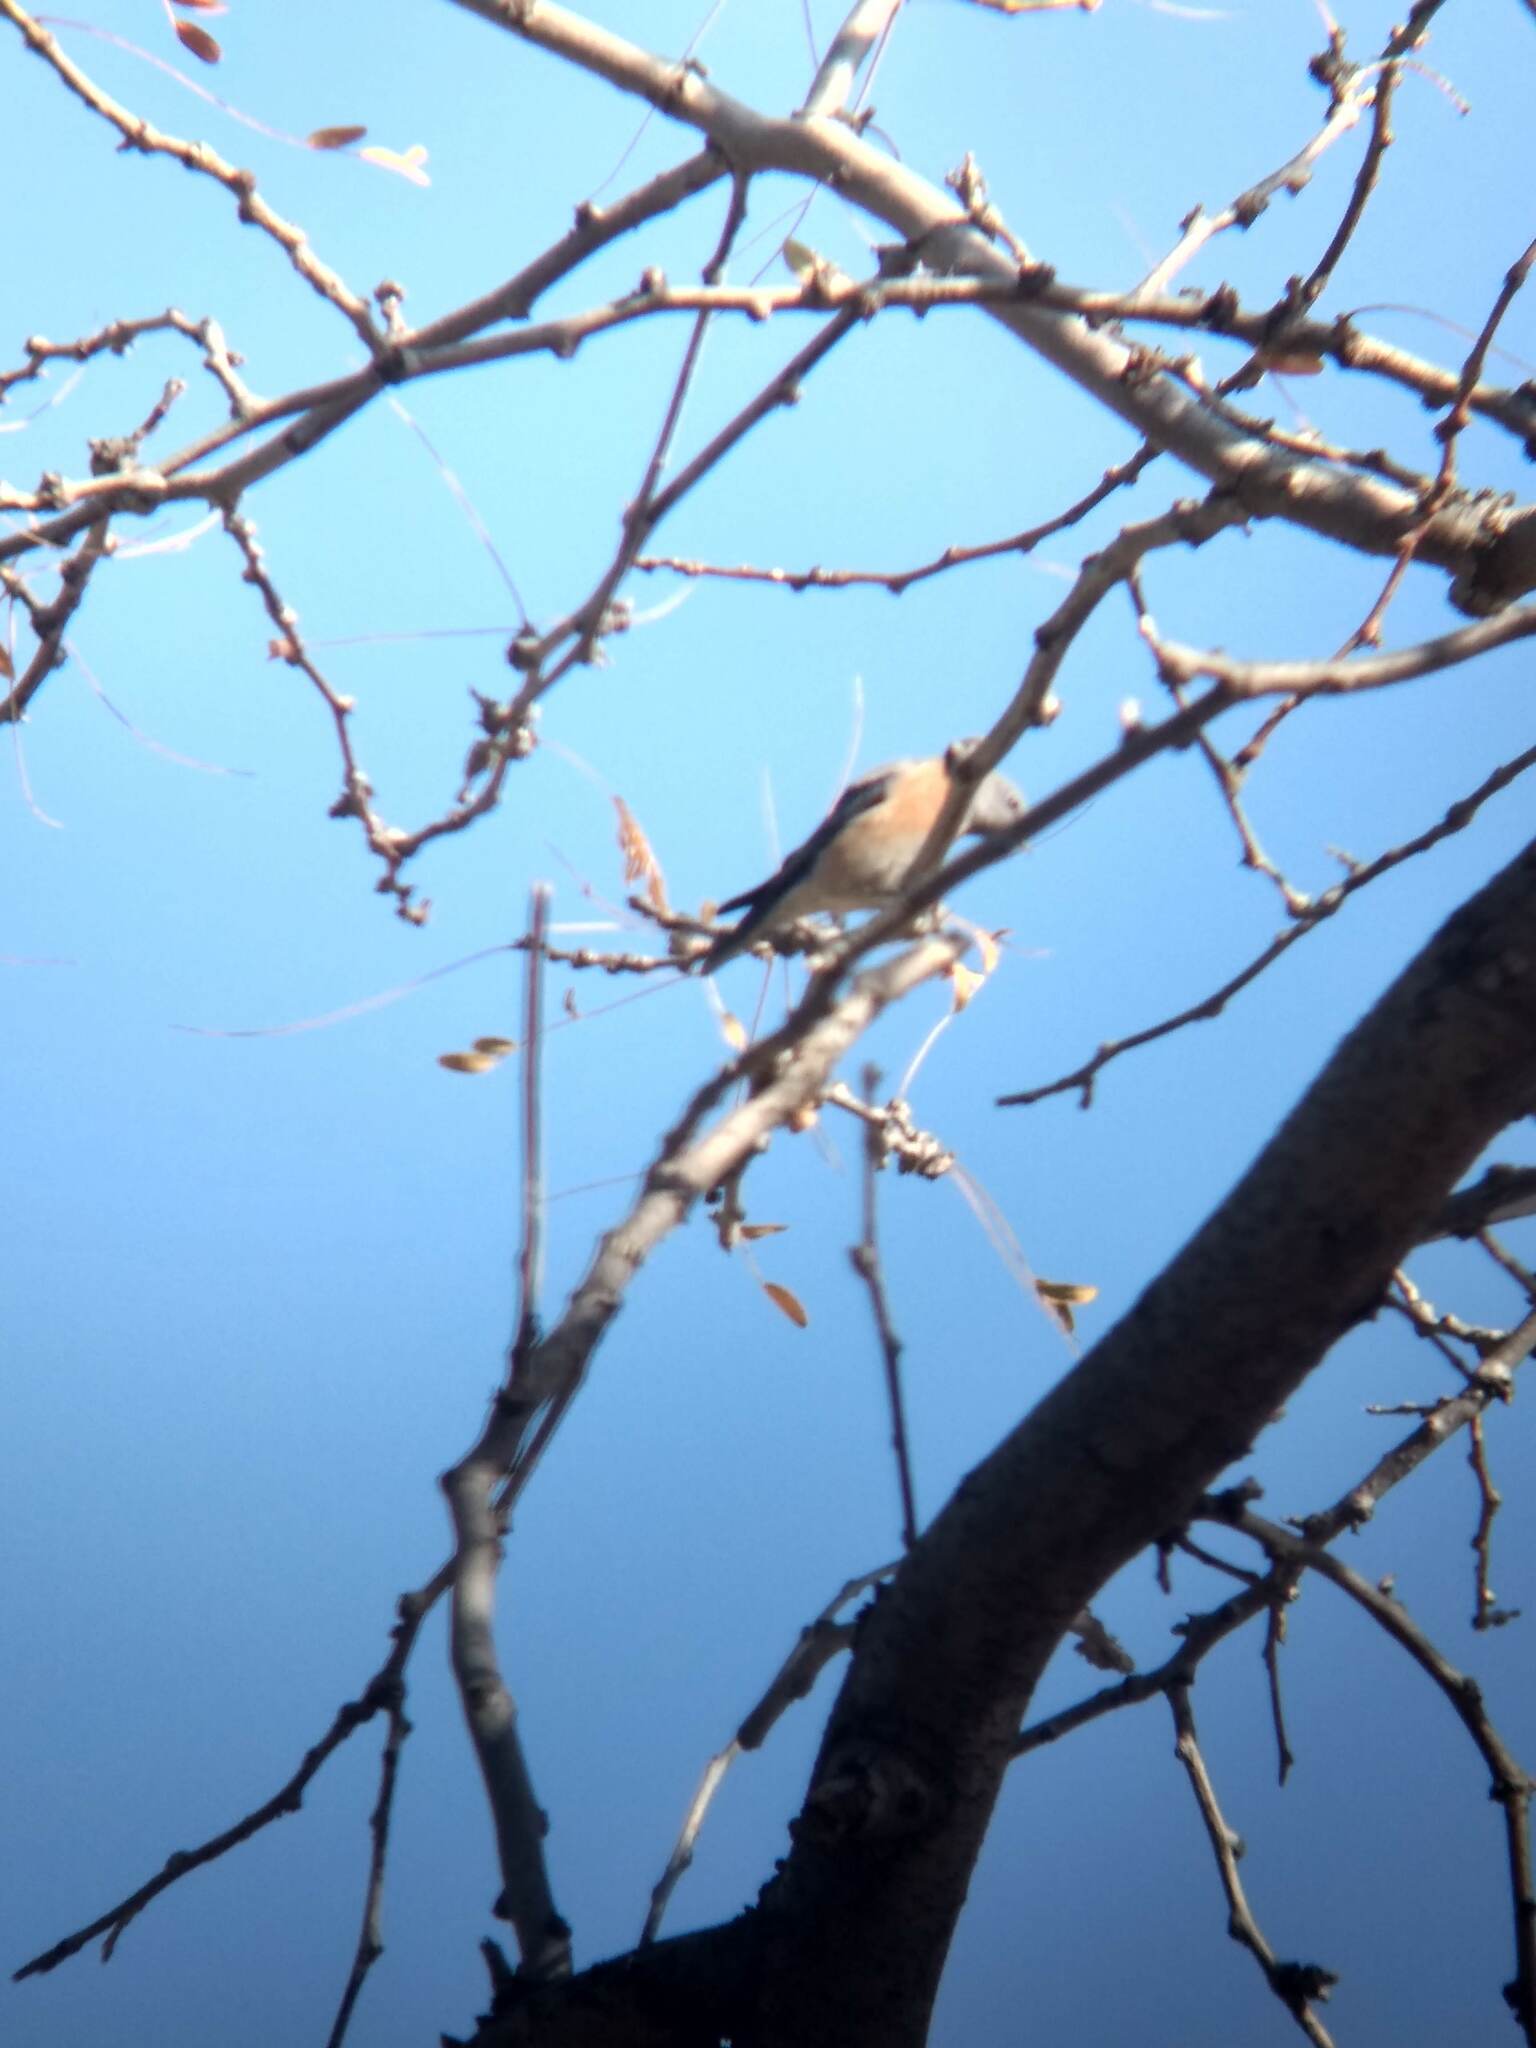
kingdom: Animalia
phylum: Chordata
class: Aves
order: Passeriformes
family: Turdidae
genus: Sialia
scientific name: Sialia mexicana
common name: Western bluebird
